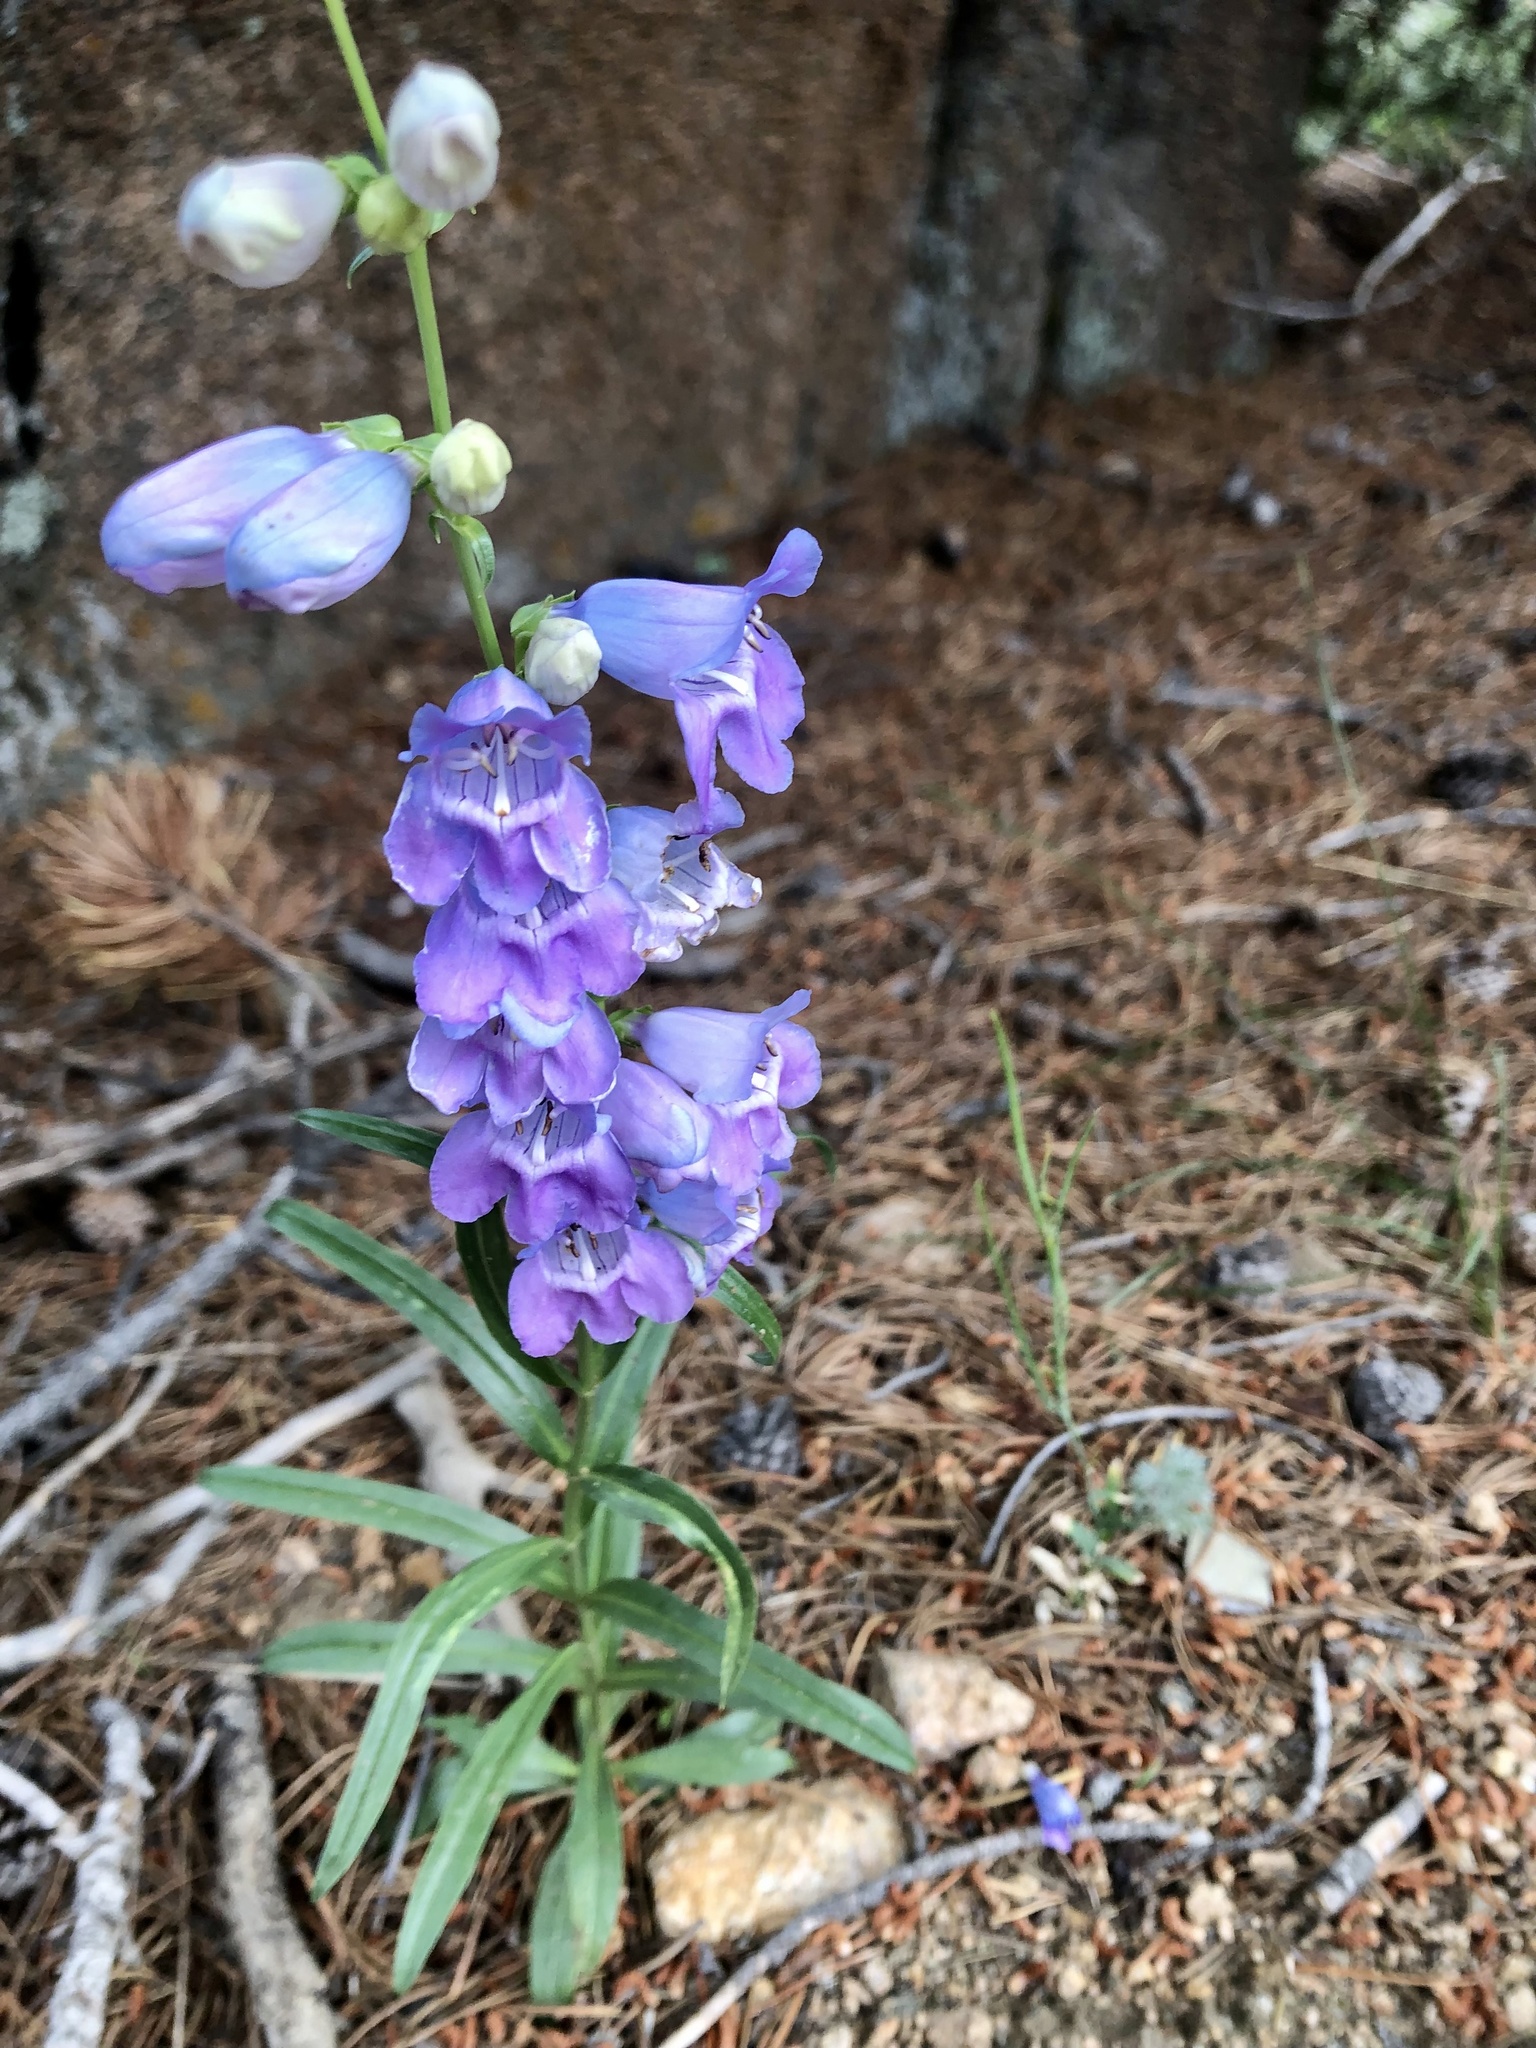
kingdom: Plantae
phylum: Tracheophyta
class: Magnoliopsida
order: Lamiales
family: Plantaginaceae
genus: Penstemon
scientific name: Penstemon virgatus
